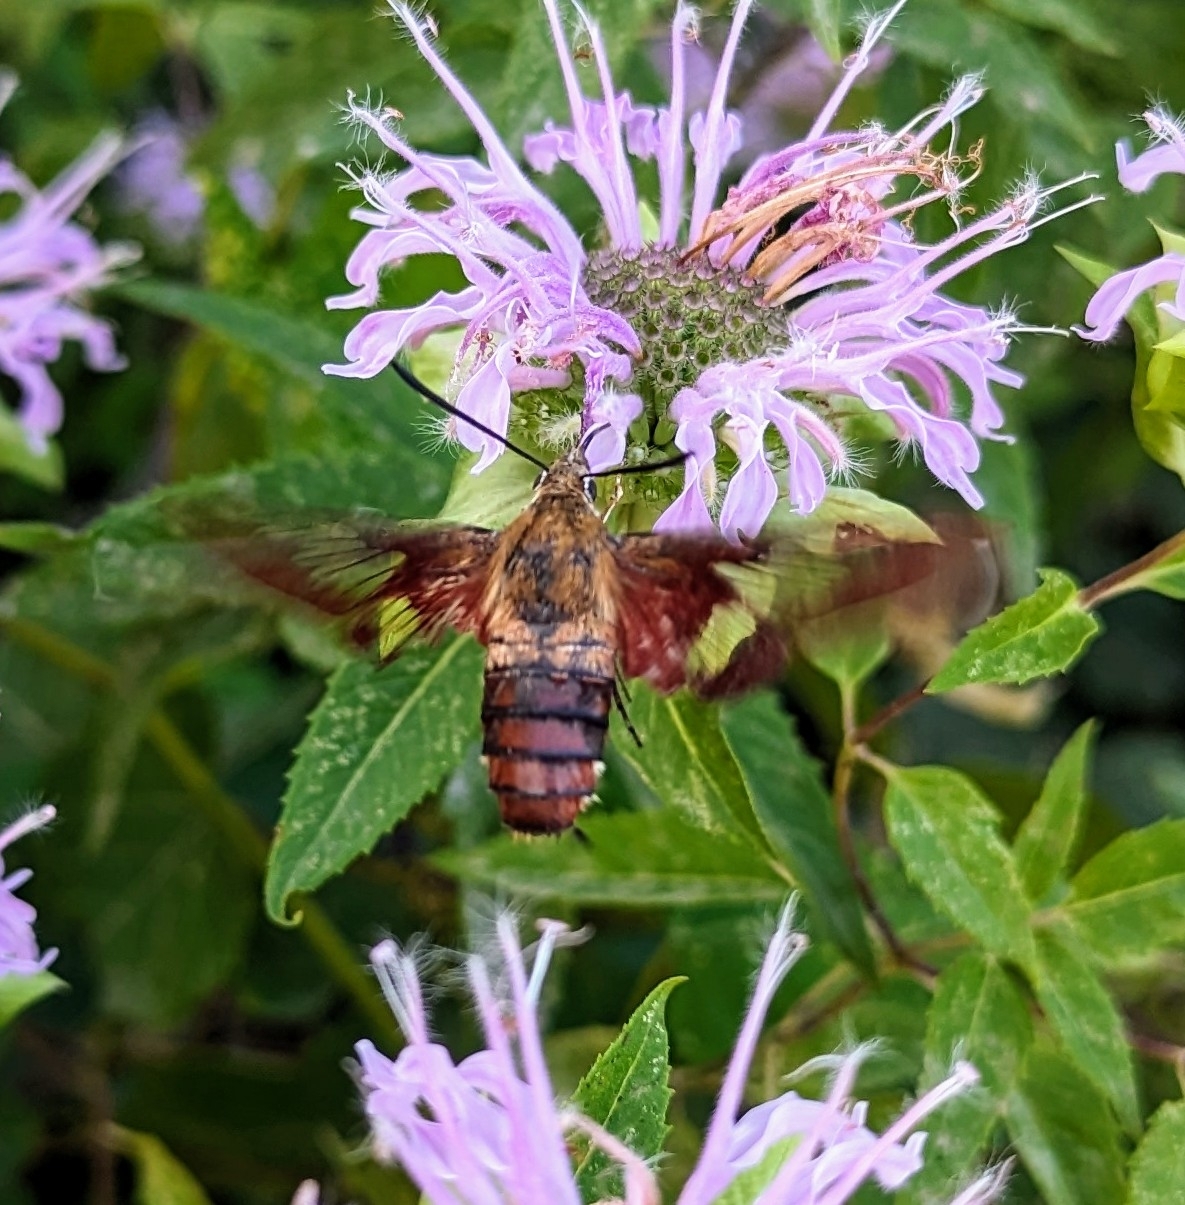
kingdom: Animalia
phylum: Arthropoda
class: Insecta
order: Lepidoptera
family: Sphingidae
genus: Hemaris
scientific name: Hemaris thysbe
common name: Common clear-wing
